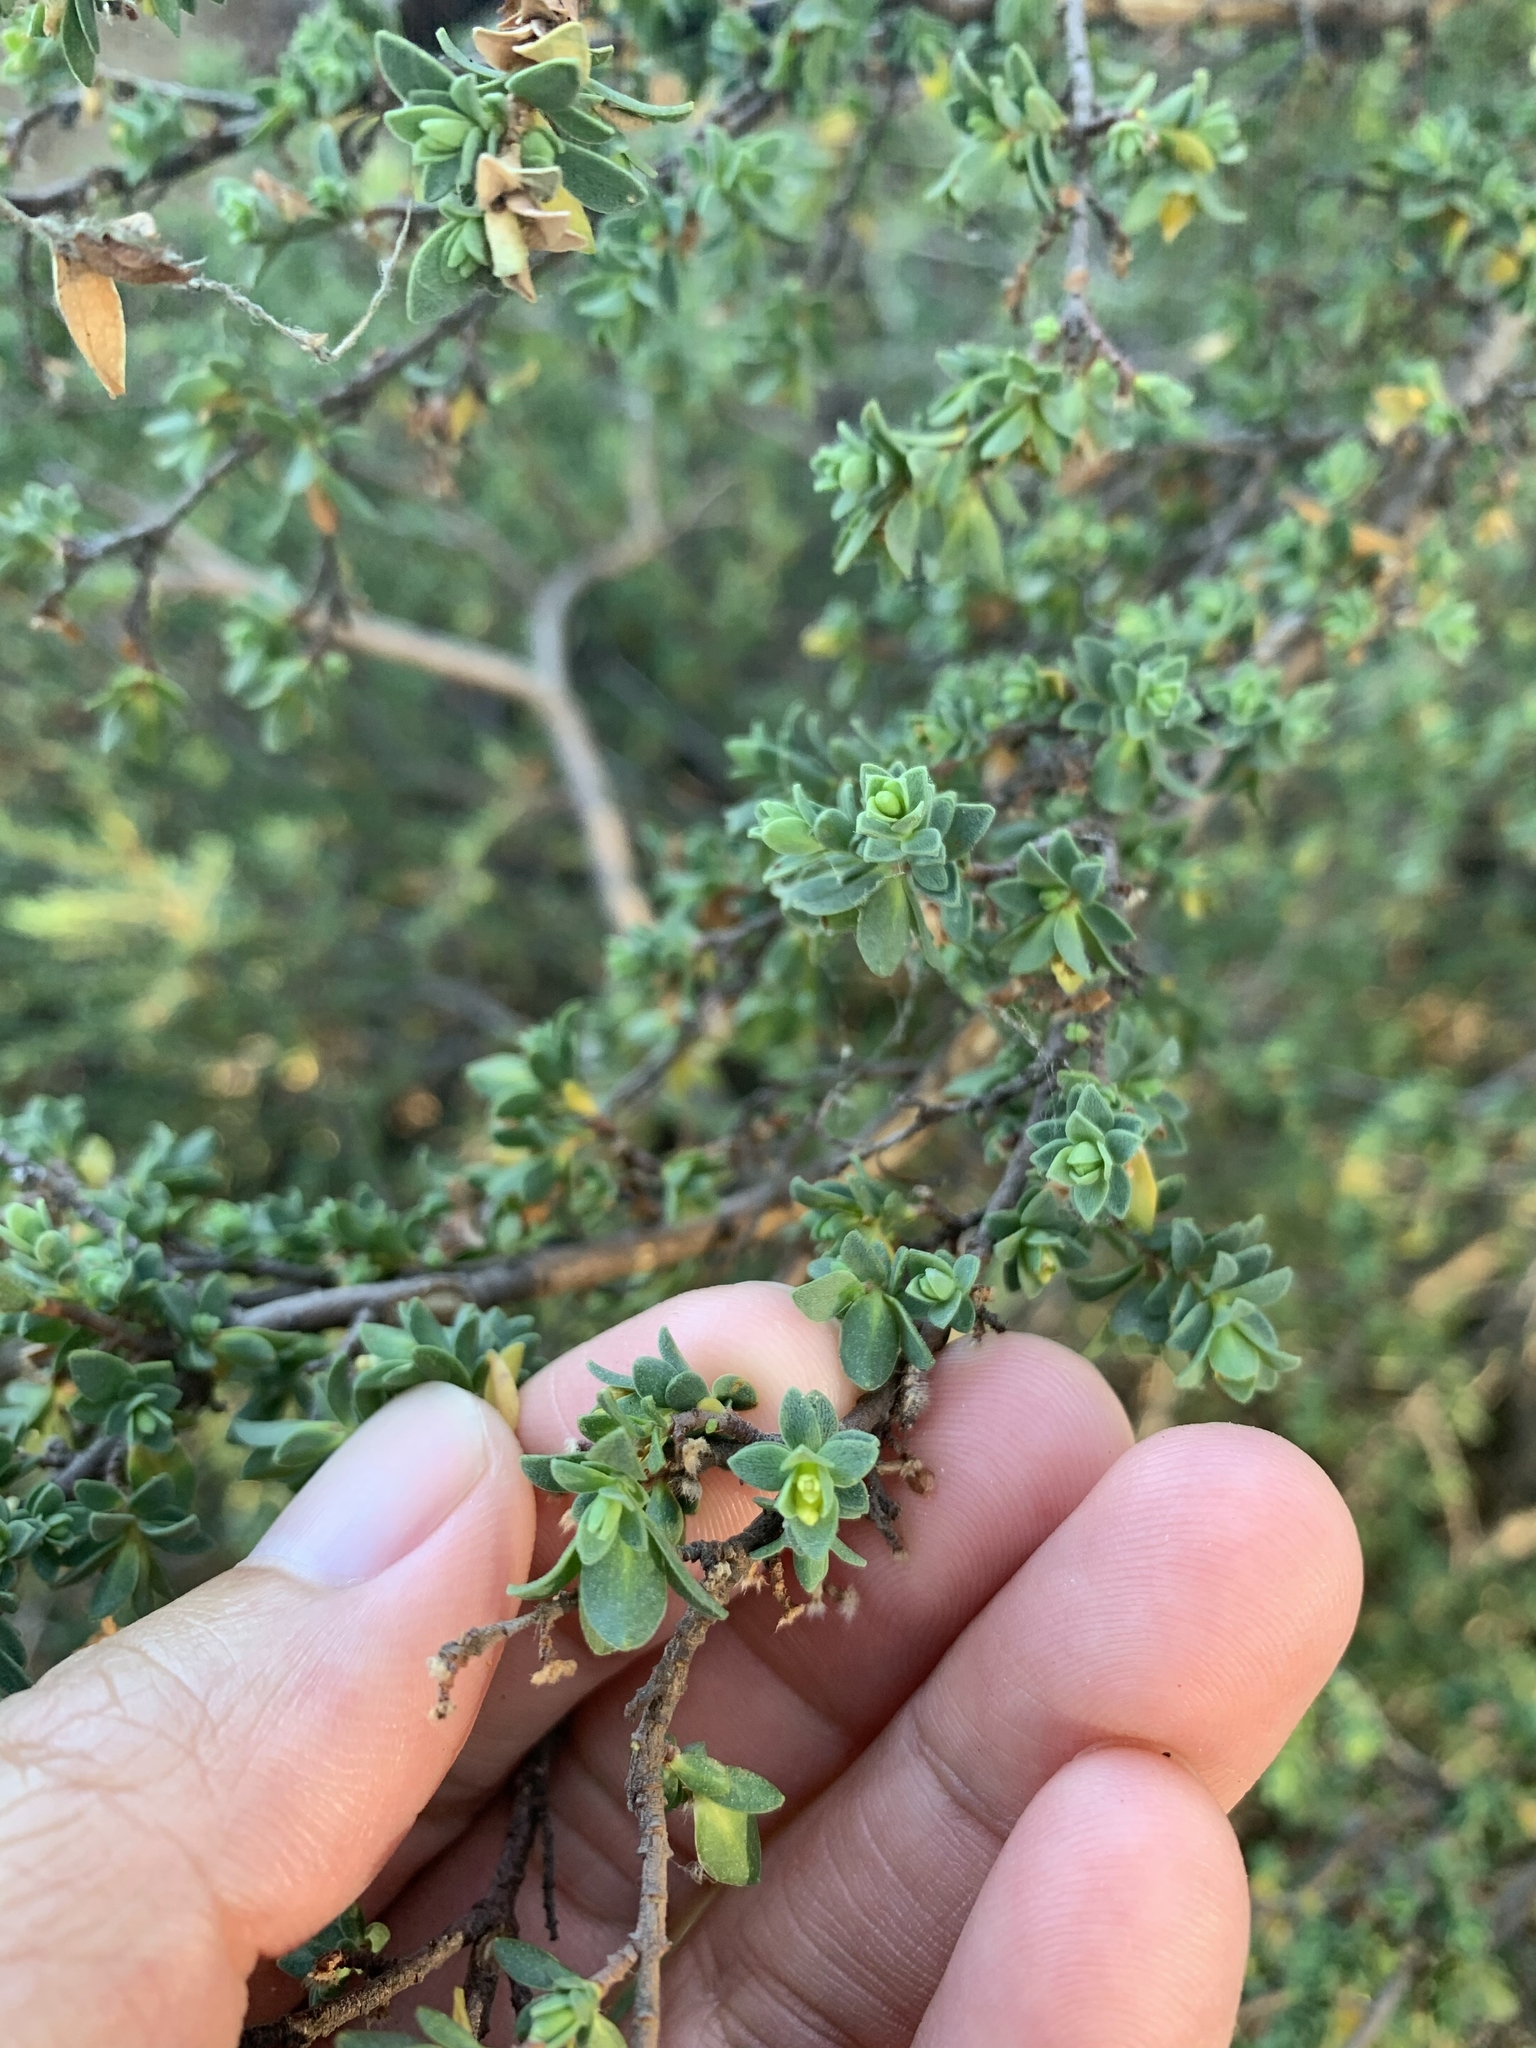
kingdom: Plantae
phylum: Tracheophyta
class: Magnoliopsida
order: Malvales
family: Thymelaeaceae
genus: Pimelea
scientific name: Pimelea serpyllifolia
